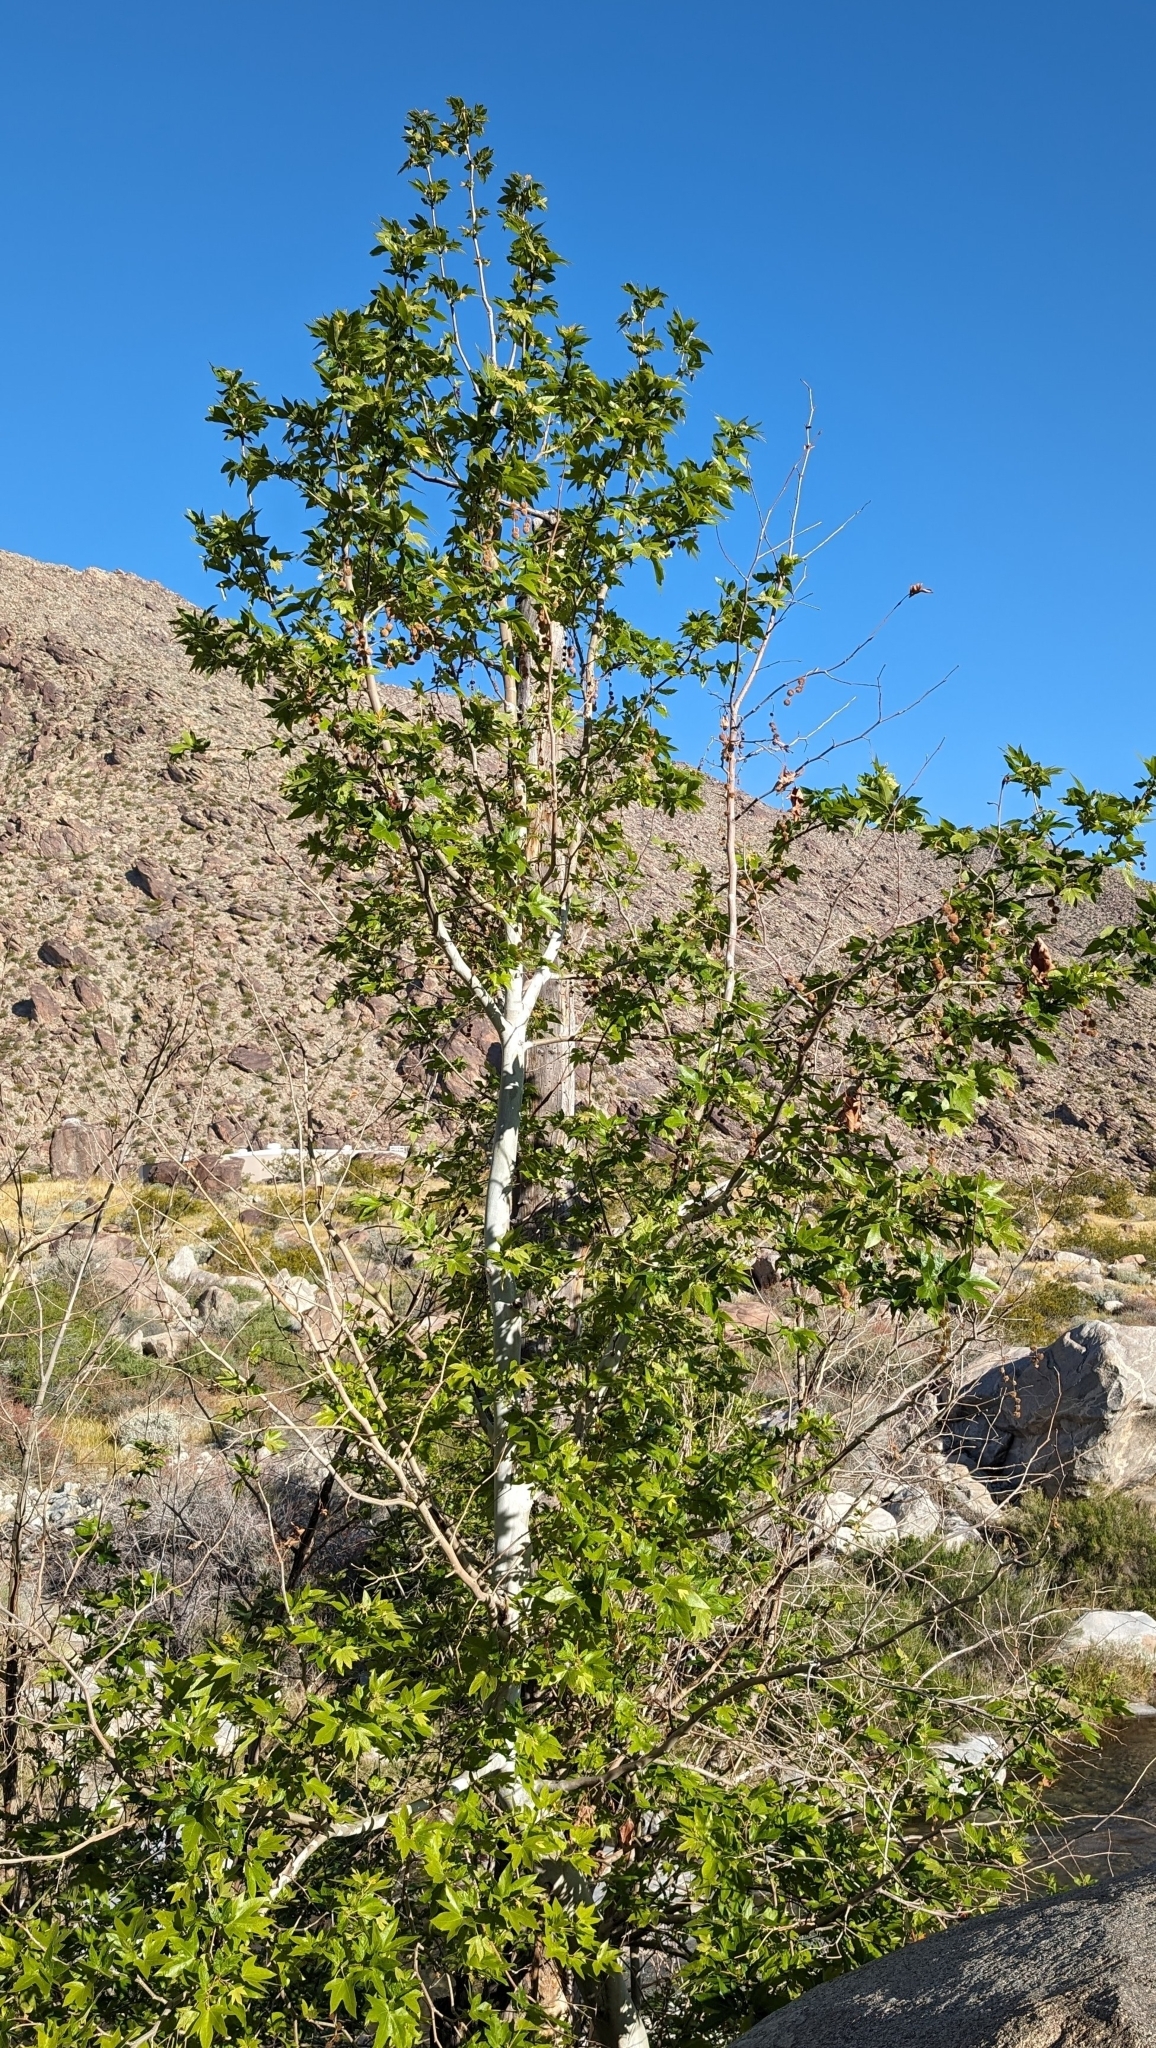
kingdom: Plantae
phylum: Tracheophyta
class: Magnoliopsida
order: Proteales
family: Platanaceae
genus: Platanus
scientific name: Platanus racemosa
